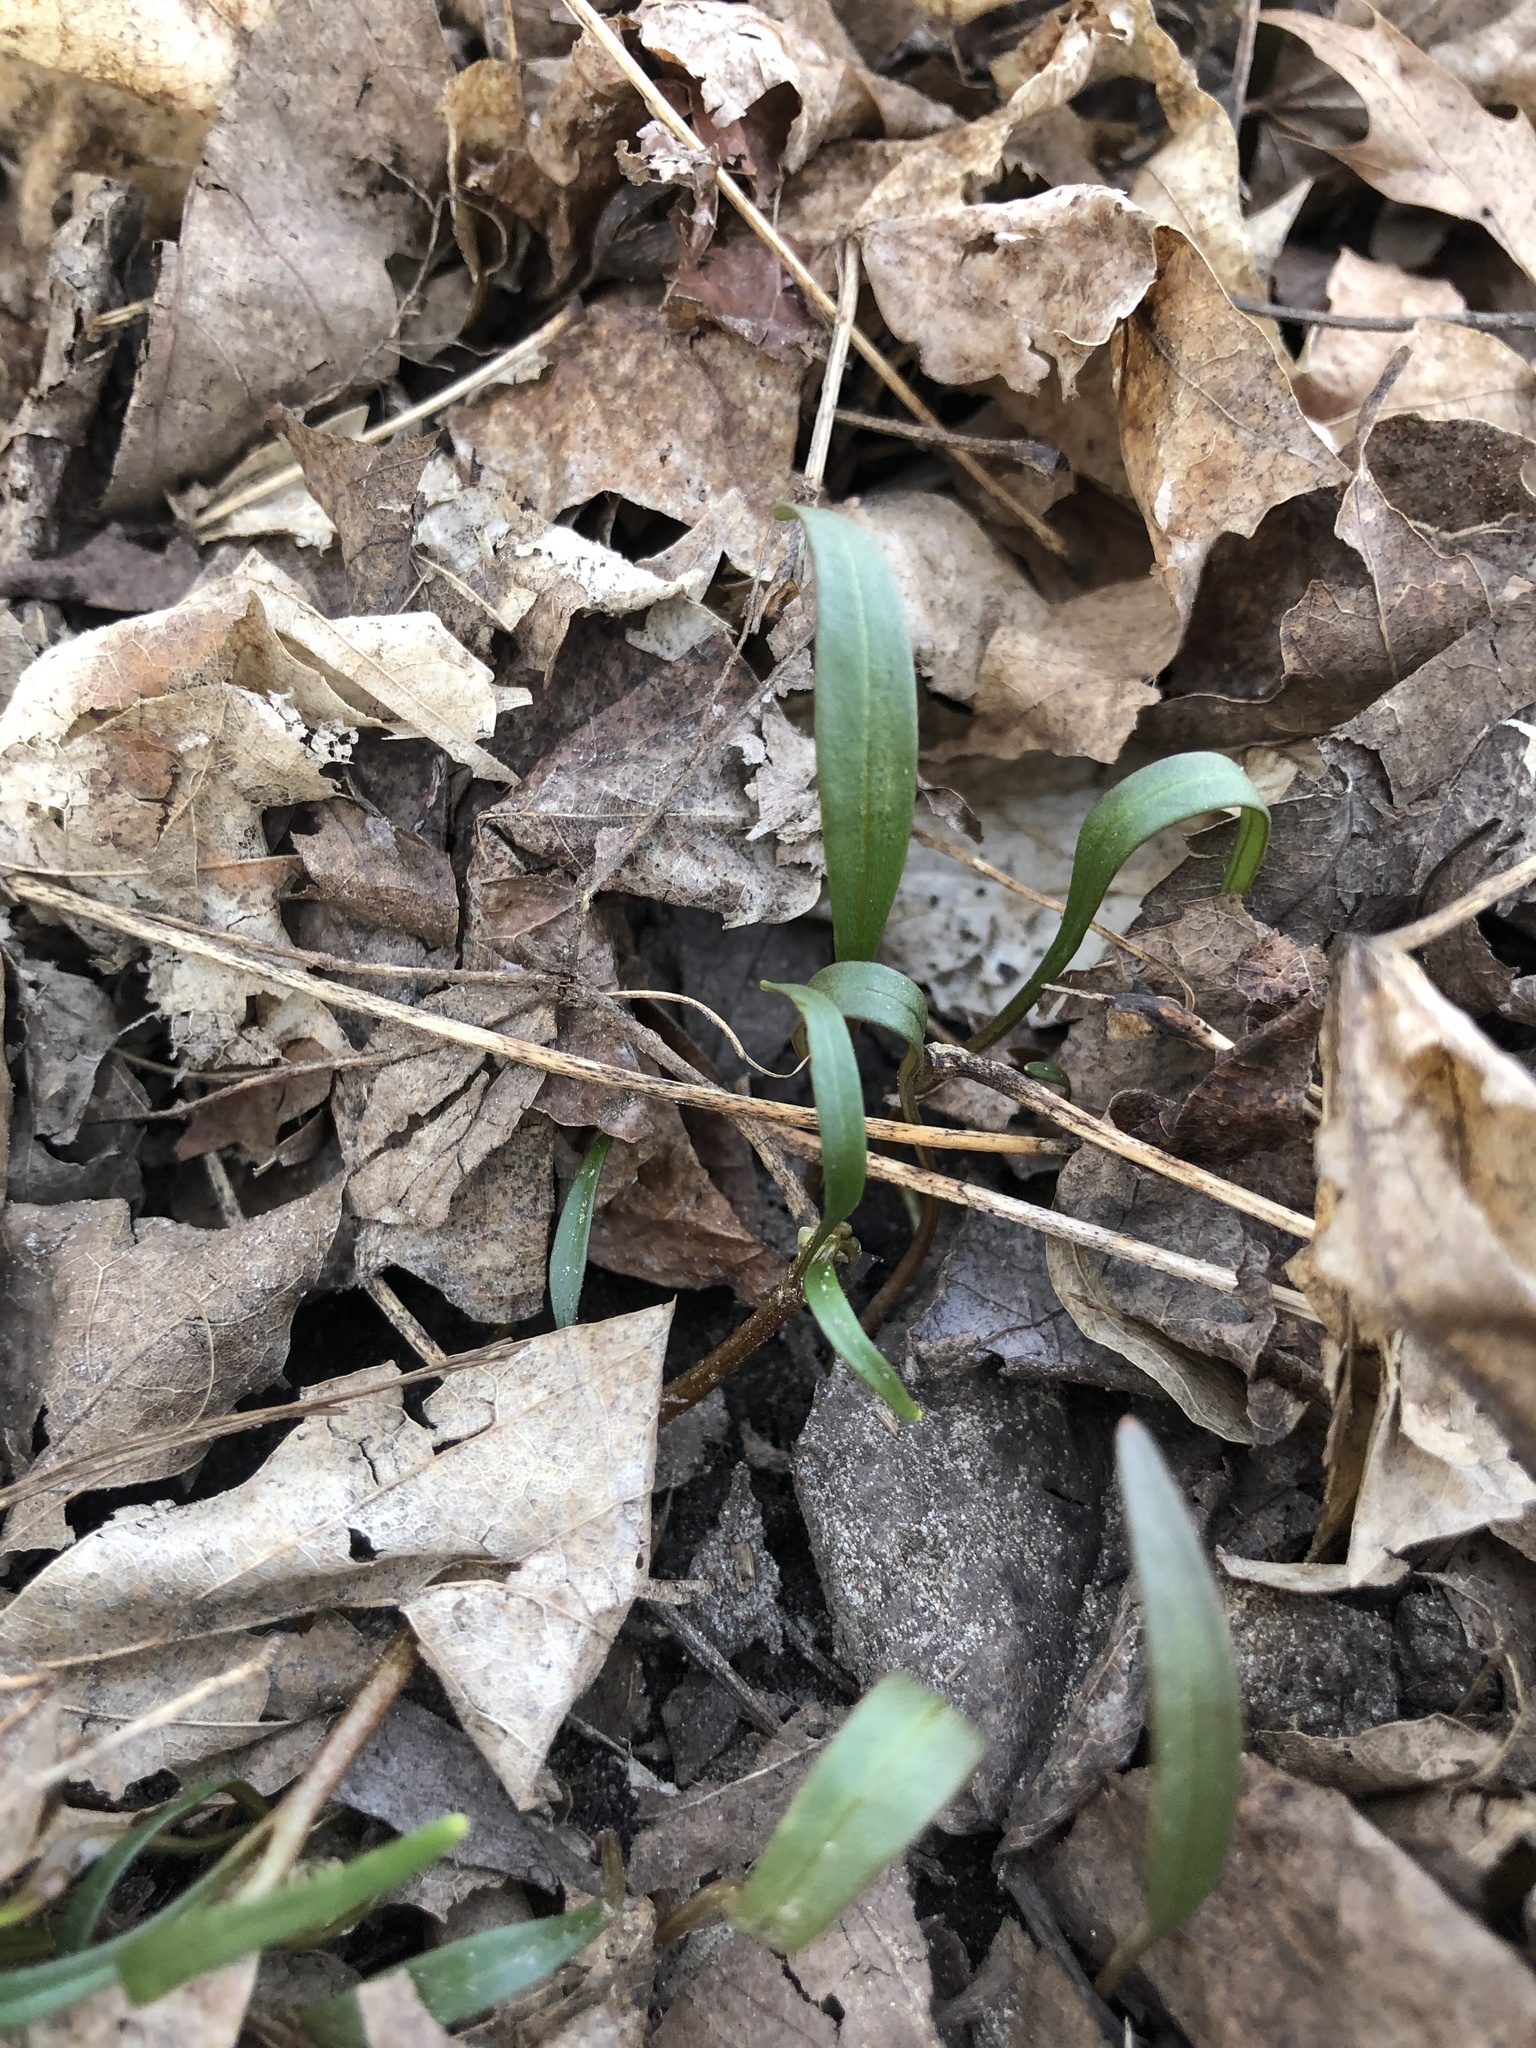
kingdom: Plantae
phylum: Tracheophyta
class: Magnoliopsida
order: Caryophyllales
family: Montiaceae
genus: Claytonia
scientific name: Claytonia virginica
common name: Virginia springbeauty
